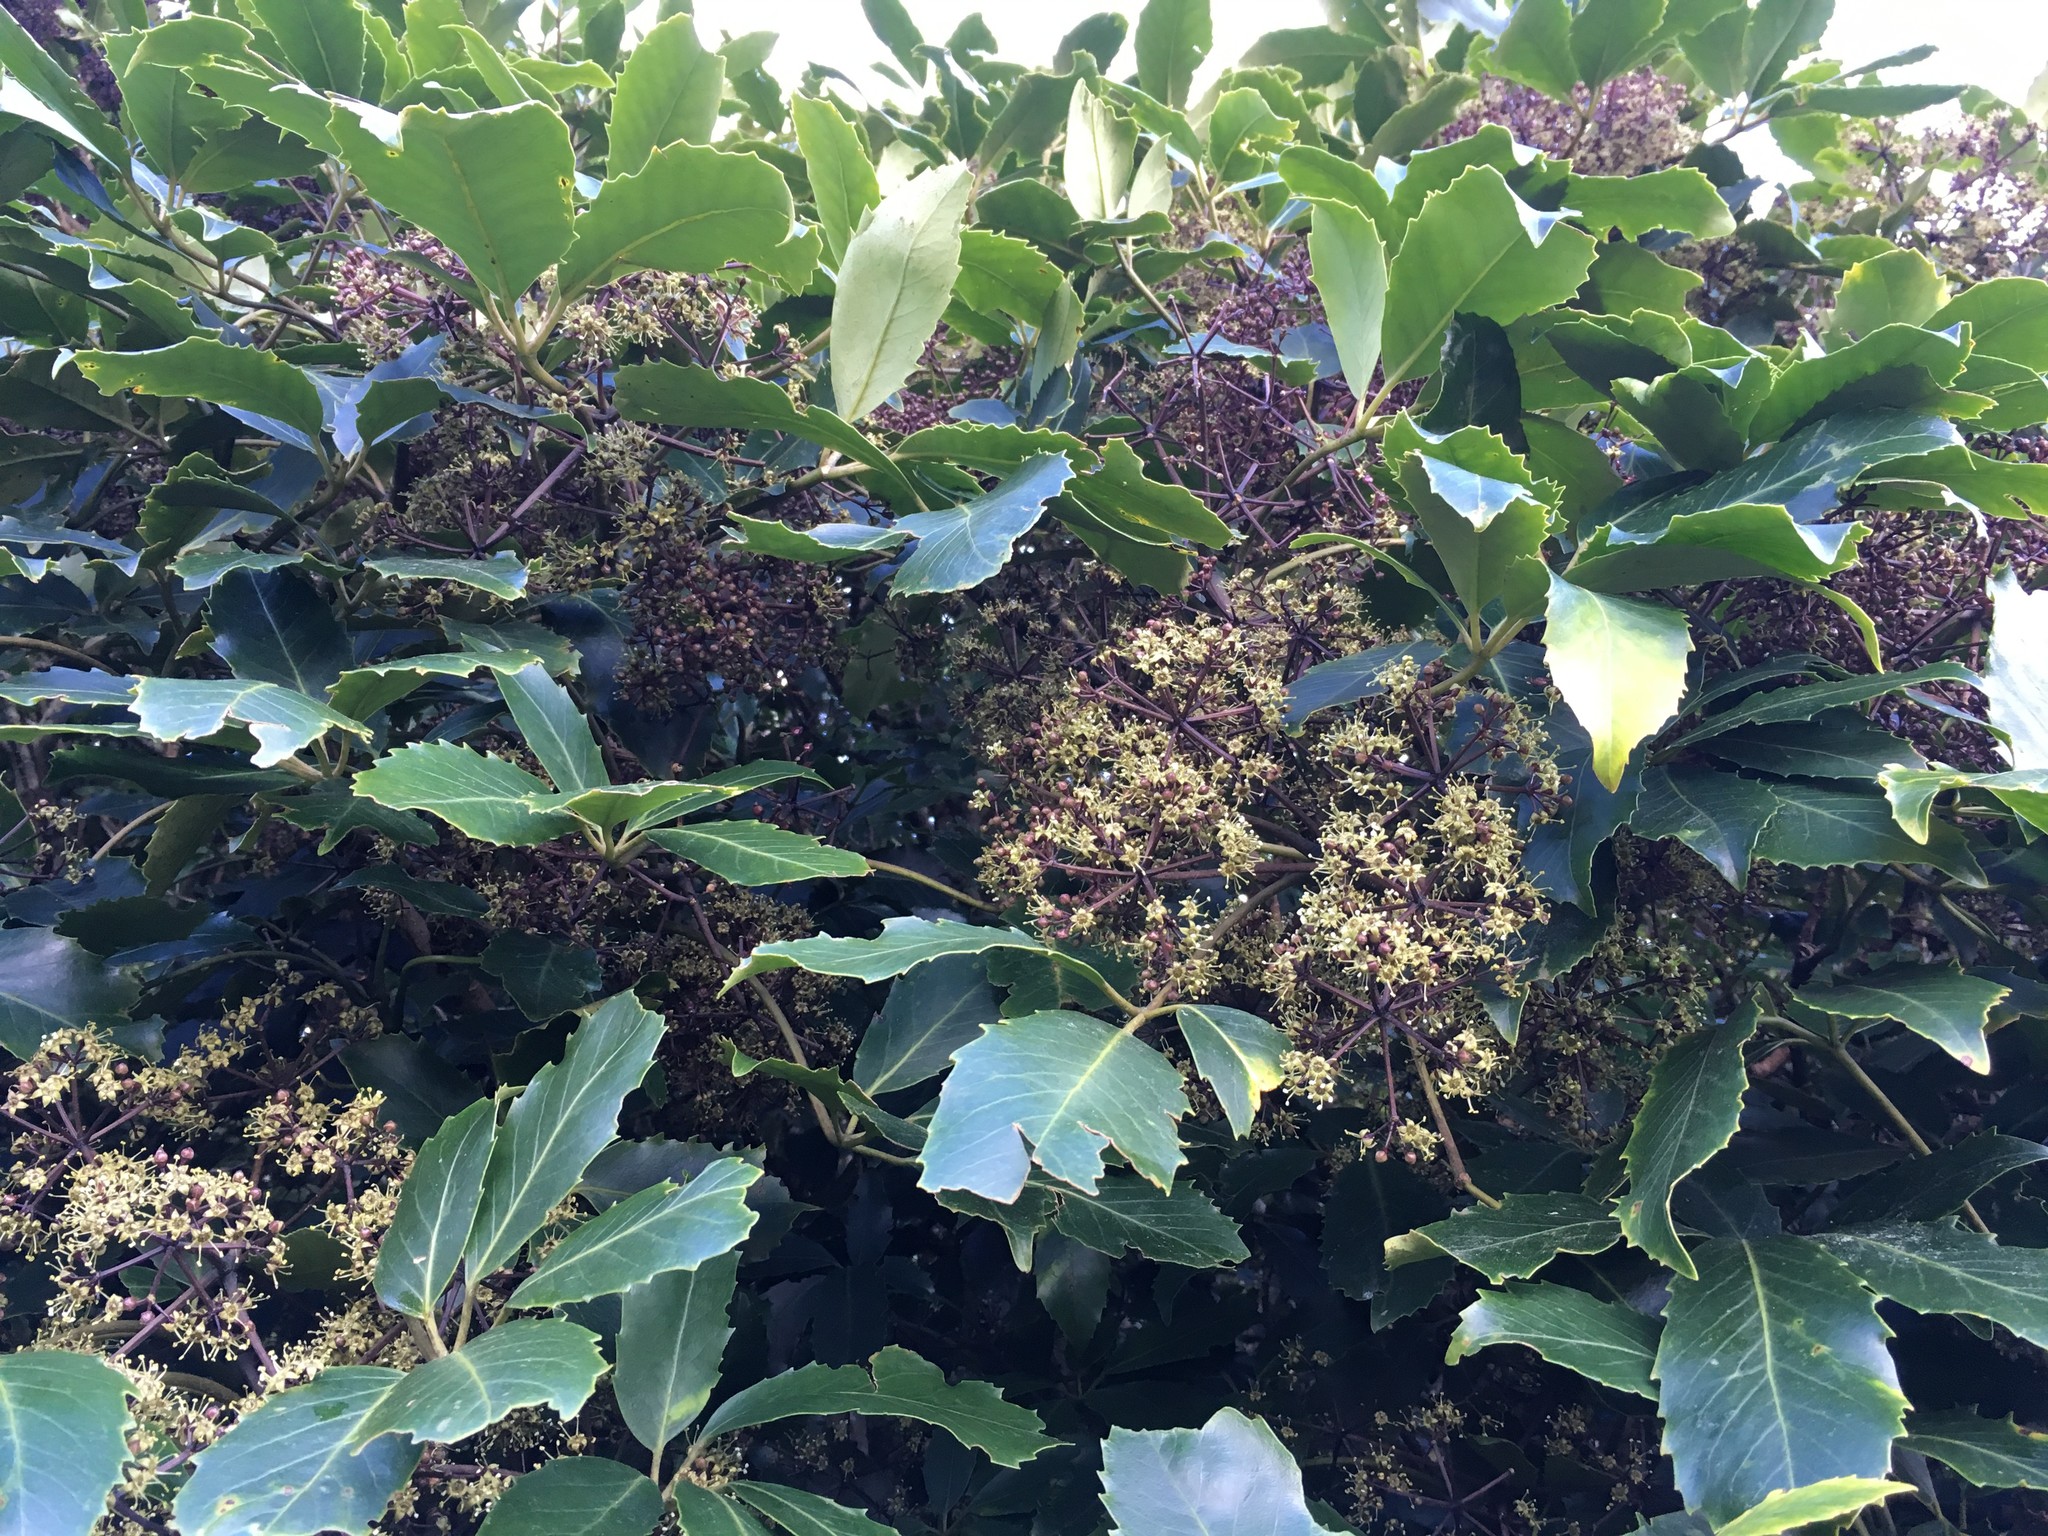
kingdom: Plantae
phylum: Tracheophyta
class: Magnoliopsida
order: Apiales
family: Araliaceae
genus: Neopanax
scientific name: Neopanax arboreus
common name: Five-fingers
